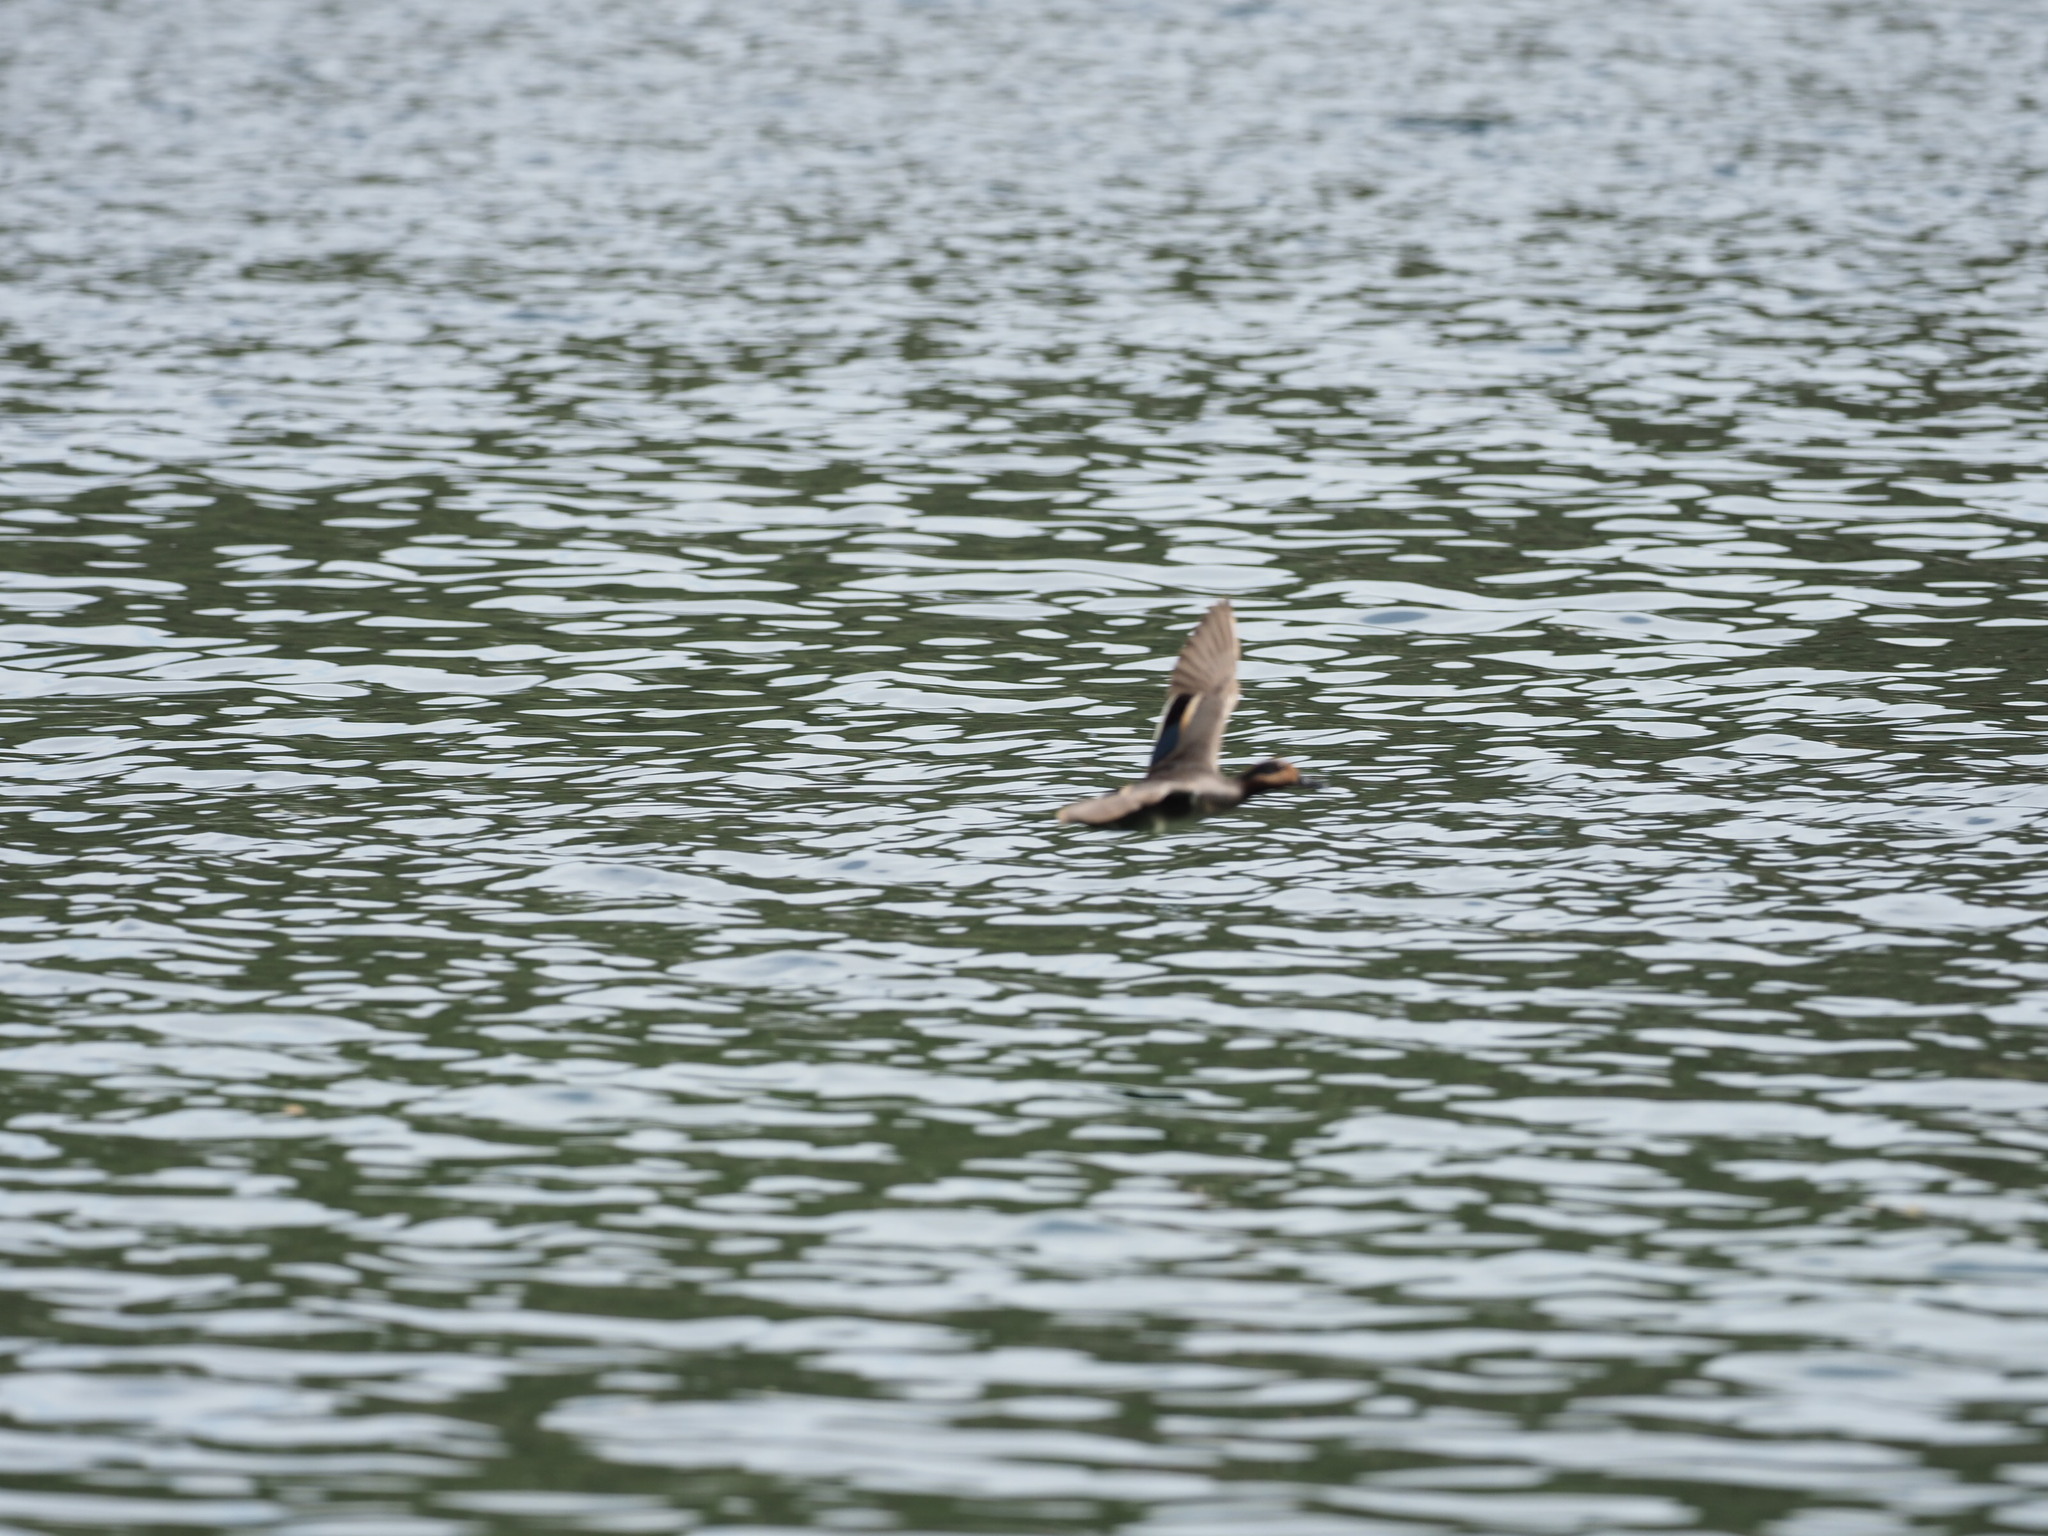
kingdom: Animalia
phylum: Chordata
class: Aves
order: Anseriformes
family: Anatidae
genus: Anas
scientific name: Anas crecca
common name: Eurasian teal
